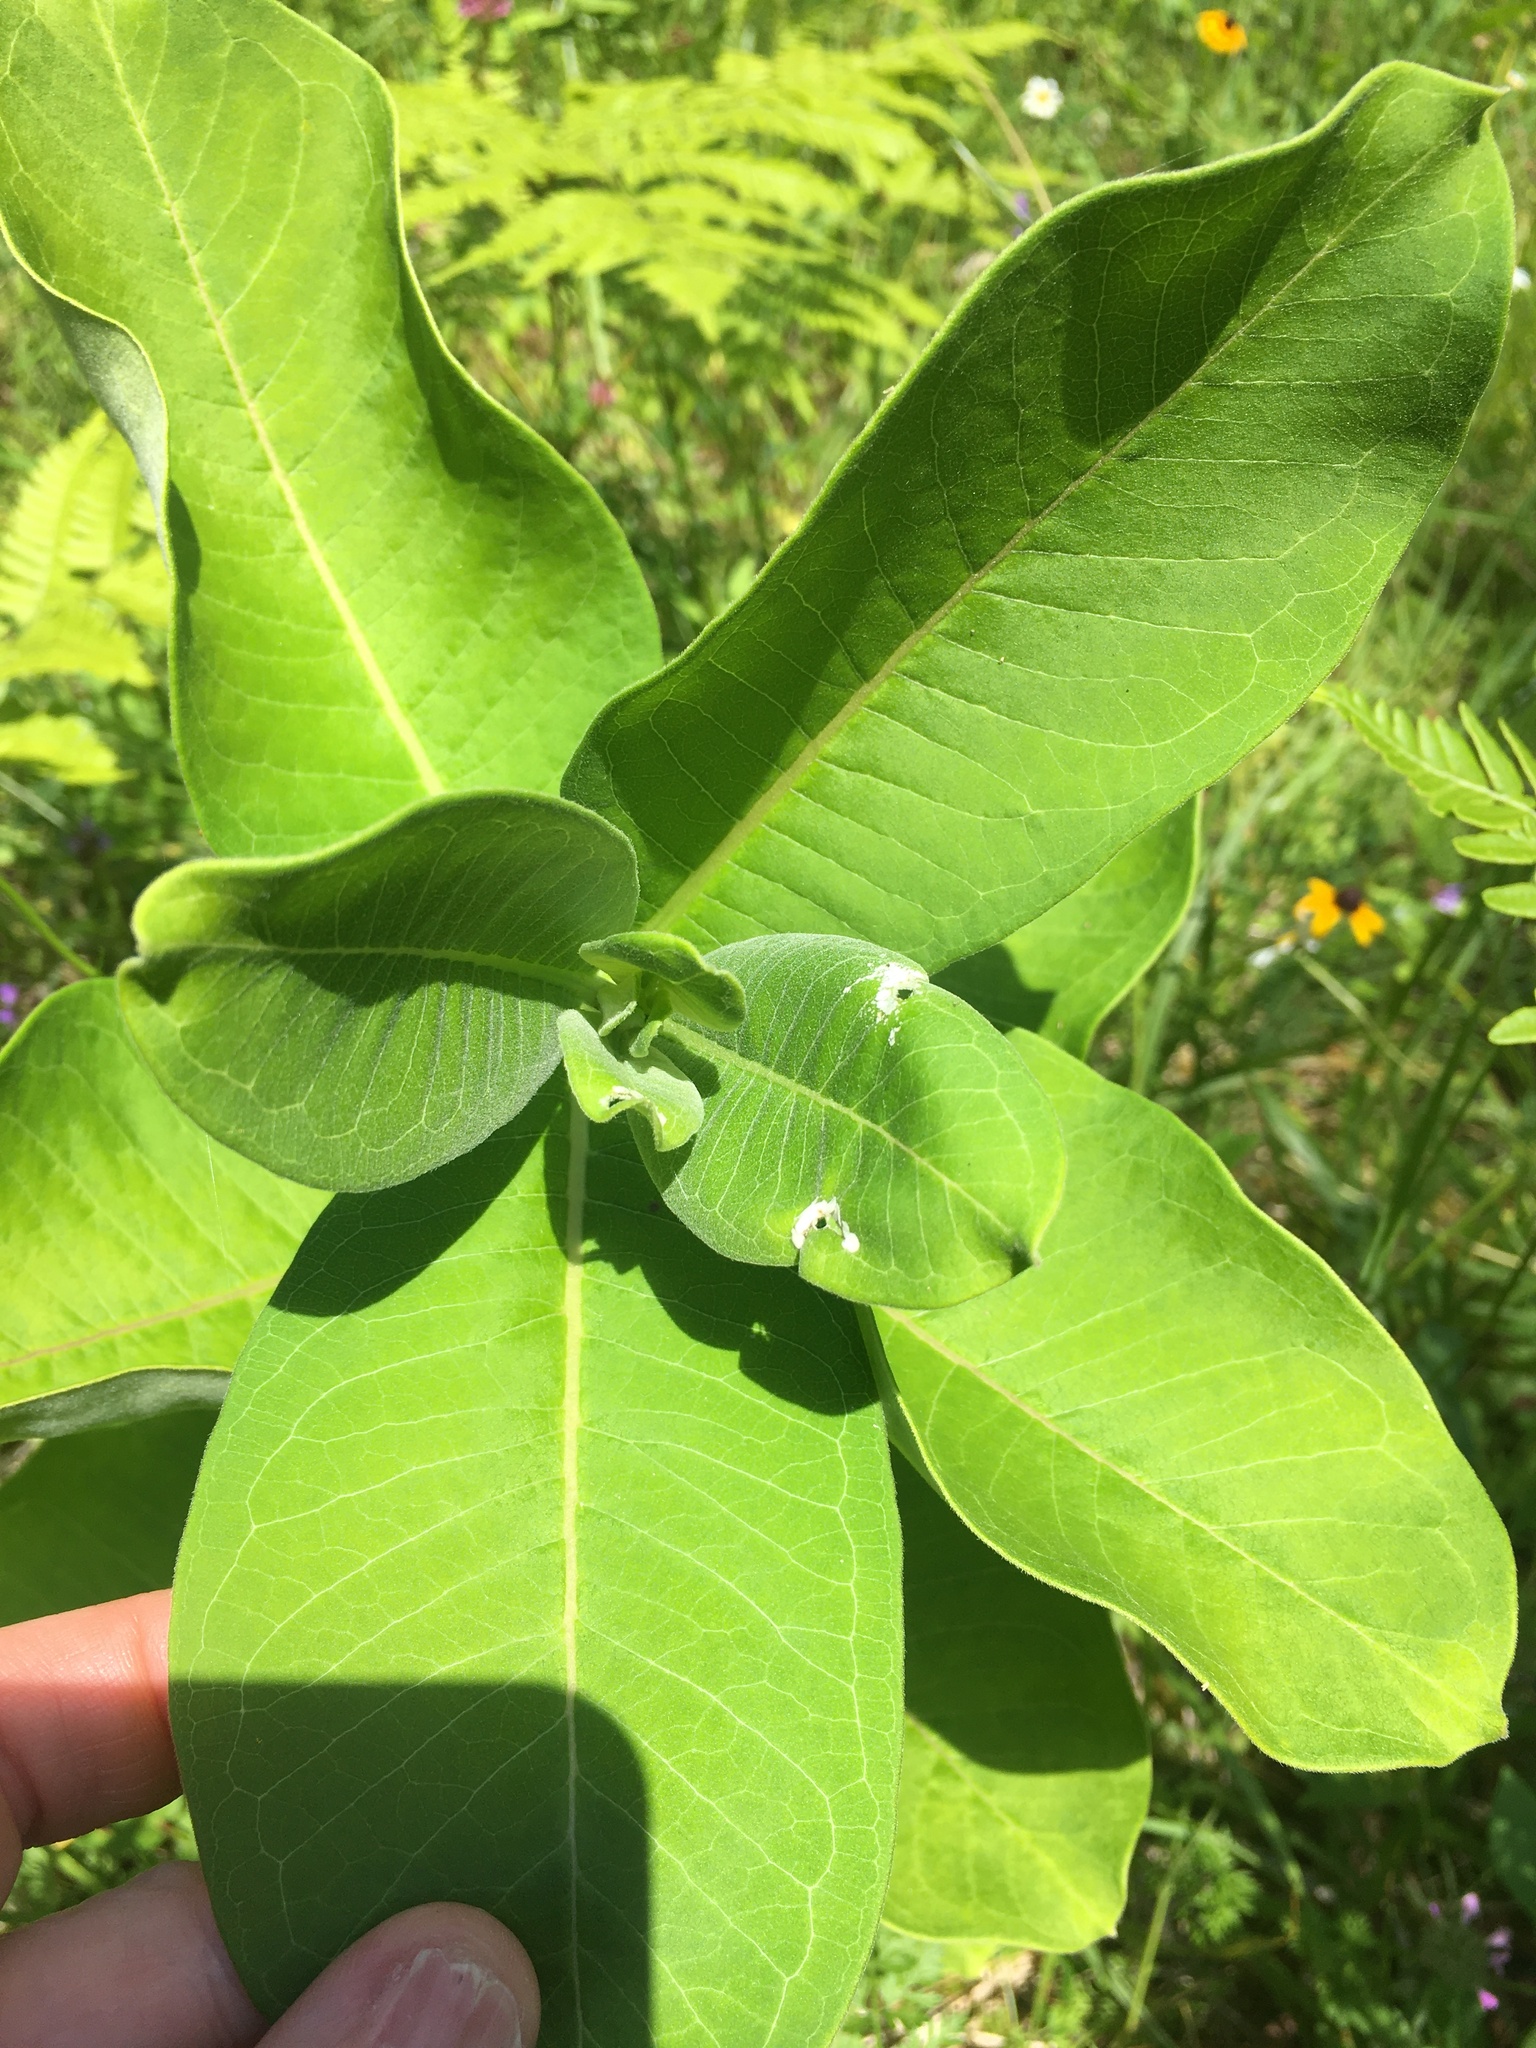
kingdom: Plantae
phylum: Tracheophyta
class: Magnoliopsida
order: Gentianales
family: Apocynaceae
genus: Asclepias
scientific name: Asclepias syriaca
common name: Common milkweed
